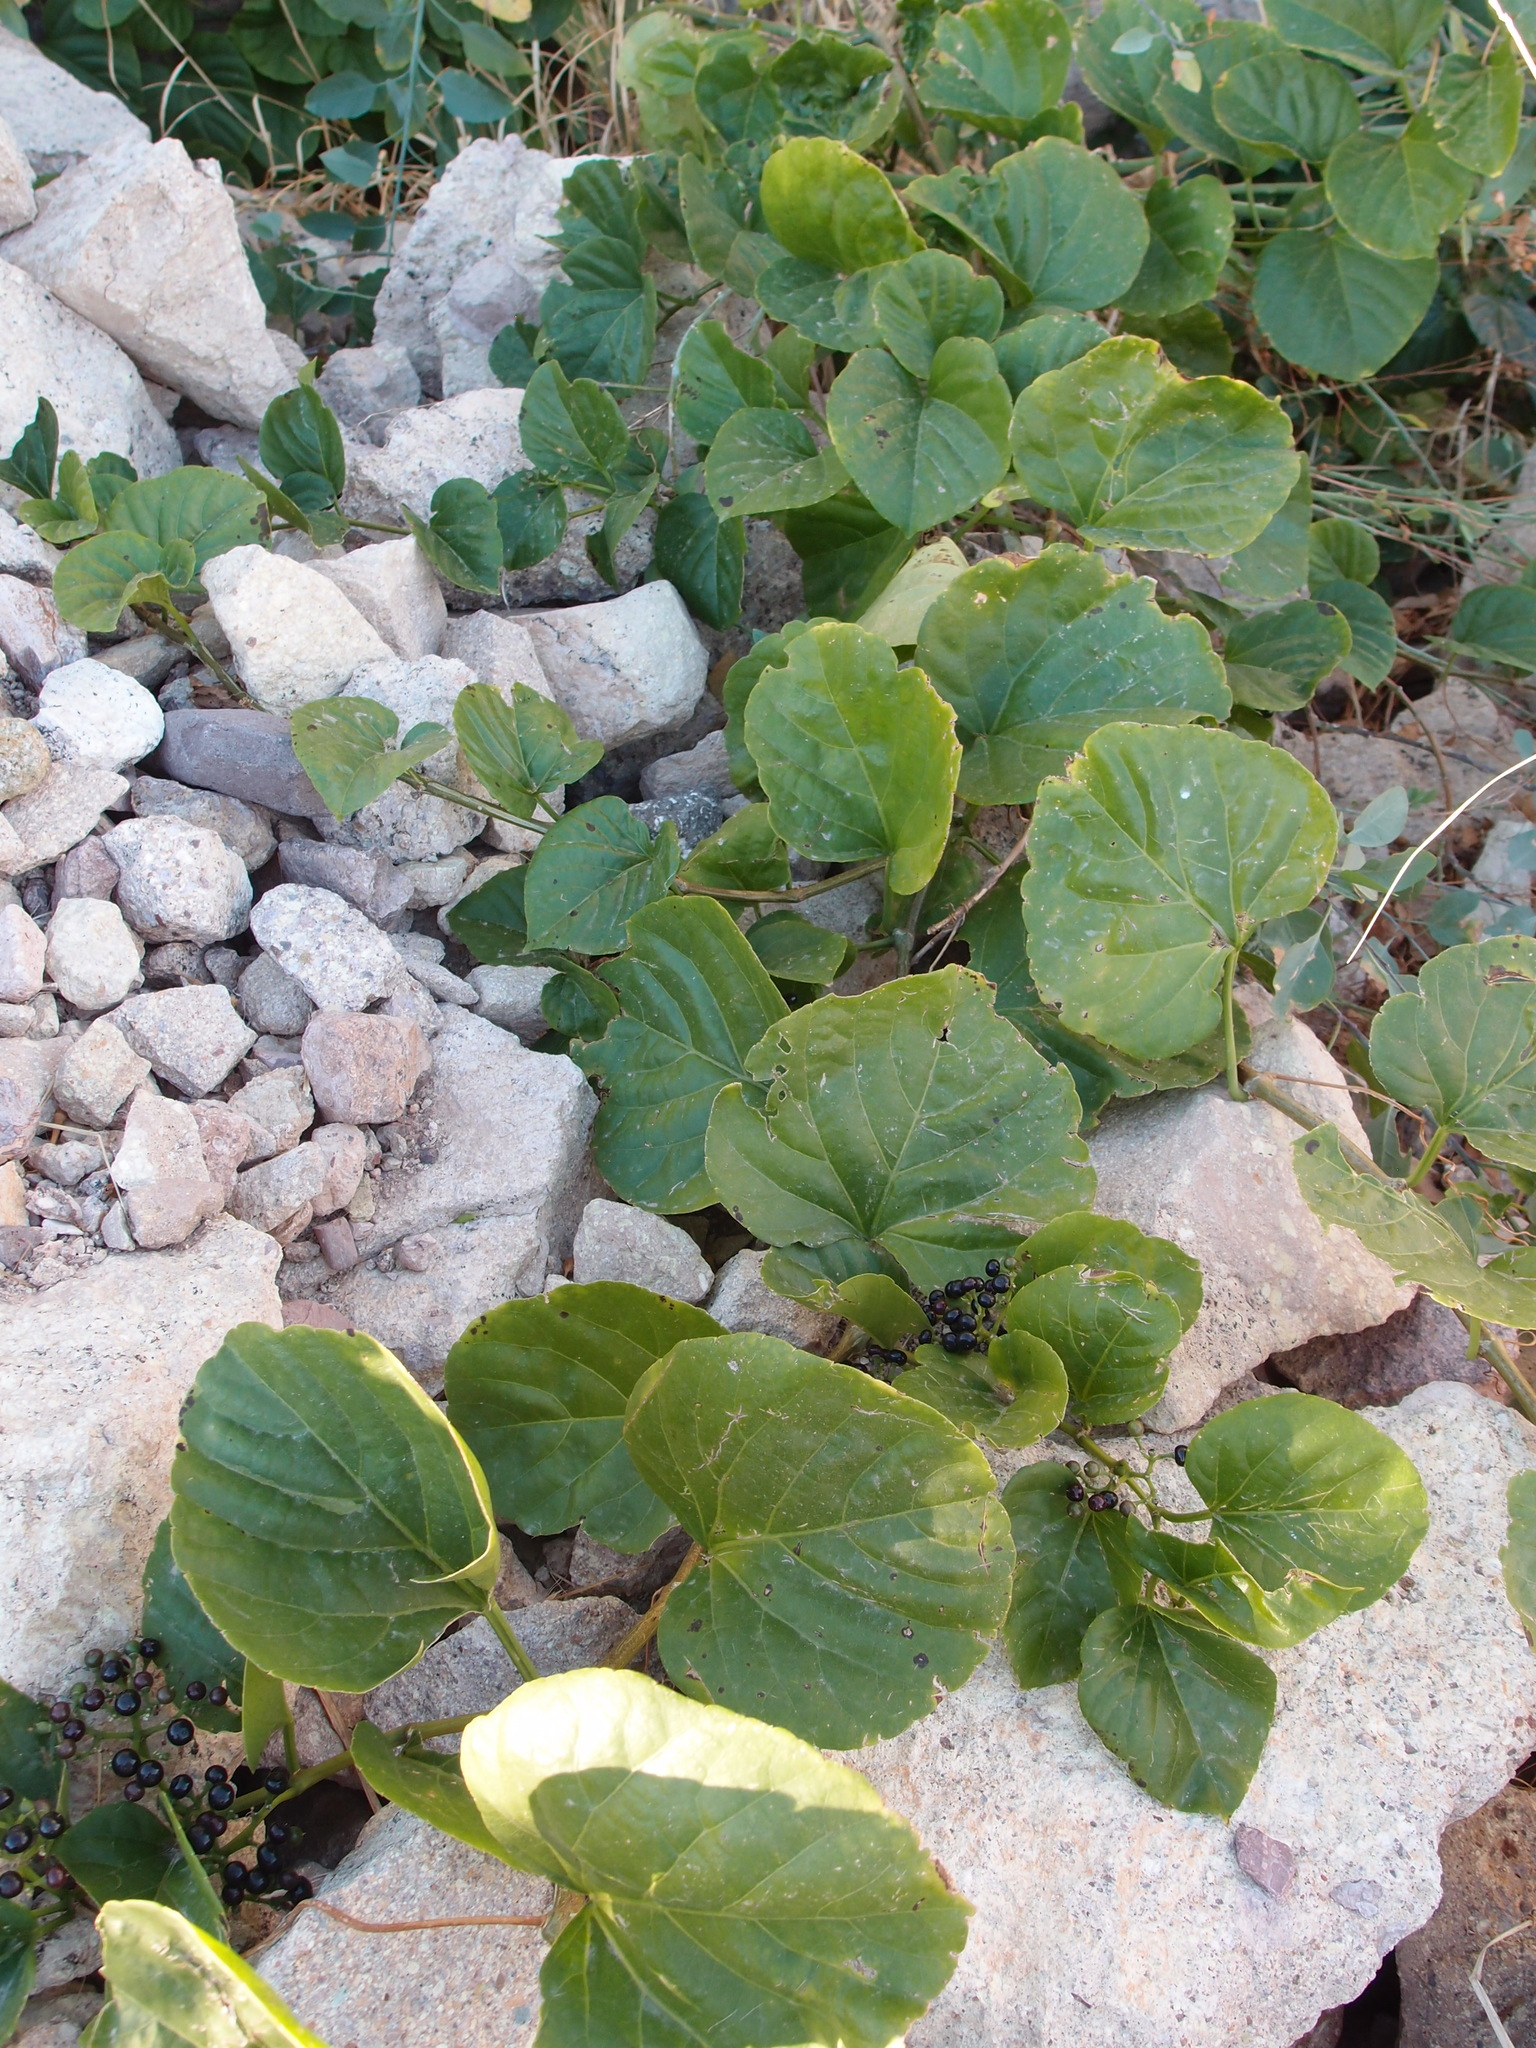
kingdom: Plantae
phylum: Tracheophyta
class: Magnoliopsida
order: Vitales
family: Vitaceae
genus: Cissus
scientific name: Cissus verticillata
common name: Princess vine
